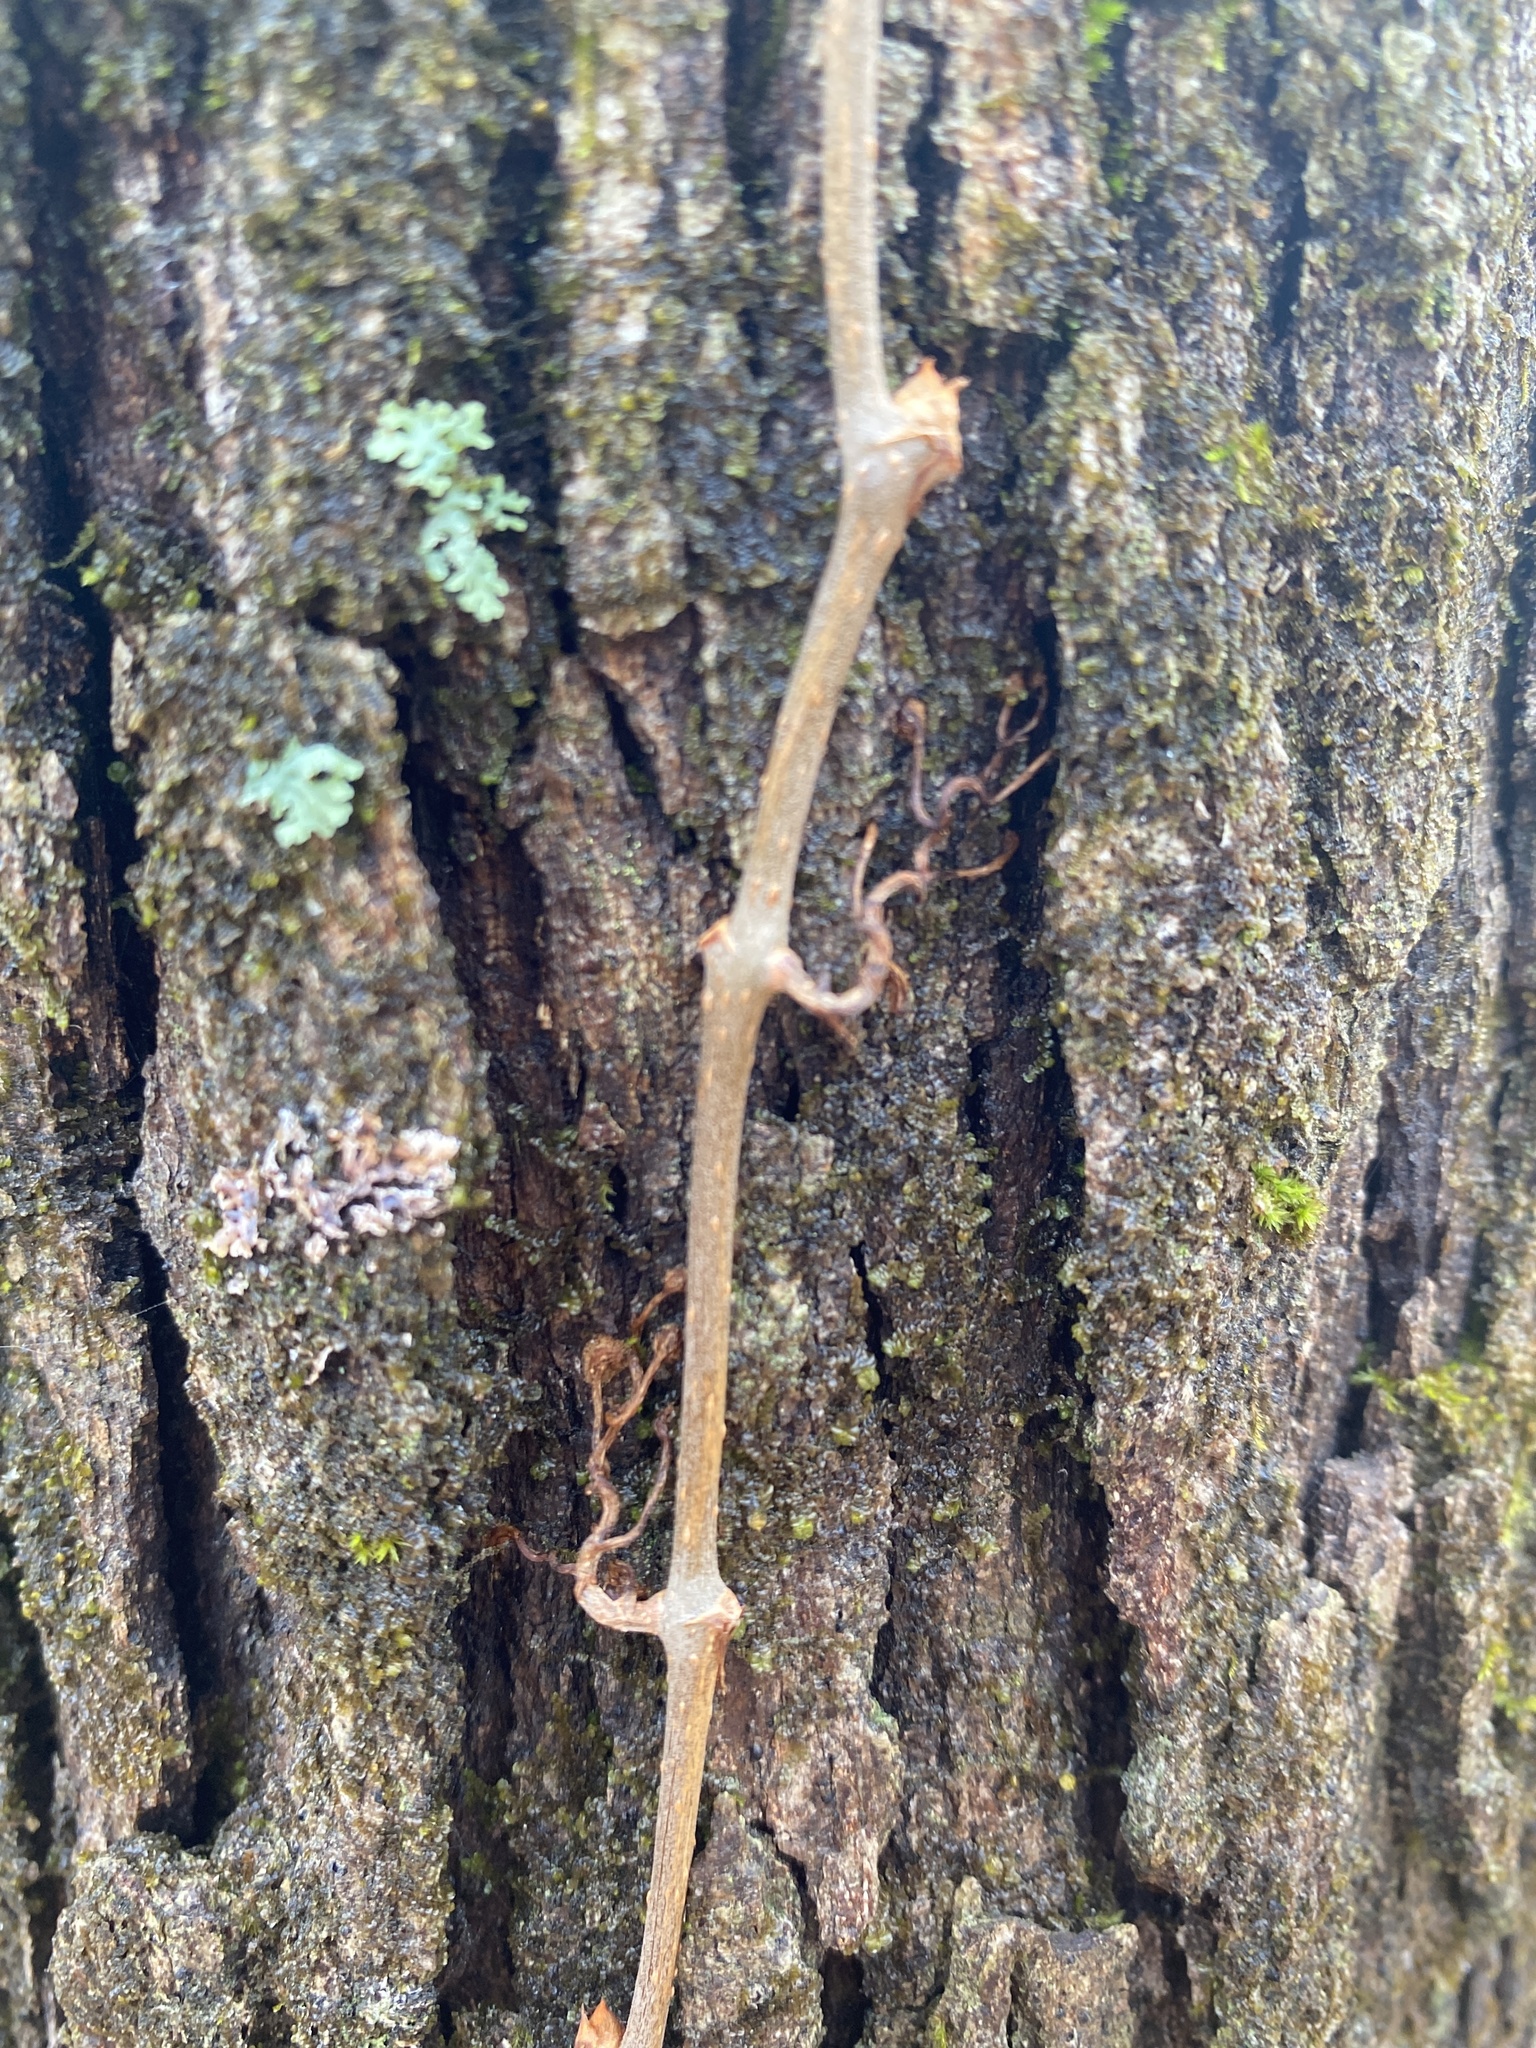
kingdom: Plantae
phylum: Tracheophyta
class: Magnoliopsida
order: Vitales
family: Vitaceae
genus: Parthenocissus
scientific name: Parthenocissus quinquefolia
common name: Virginia-creeper
